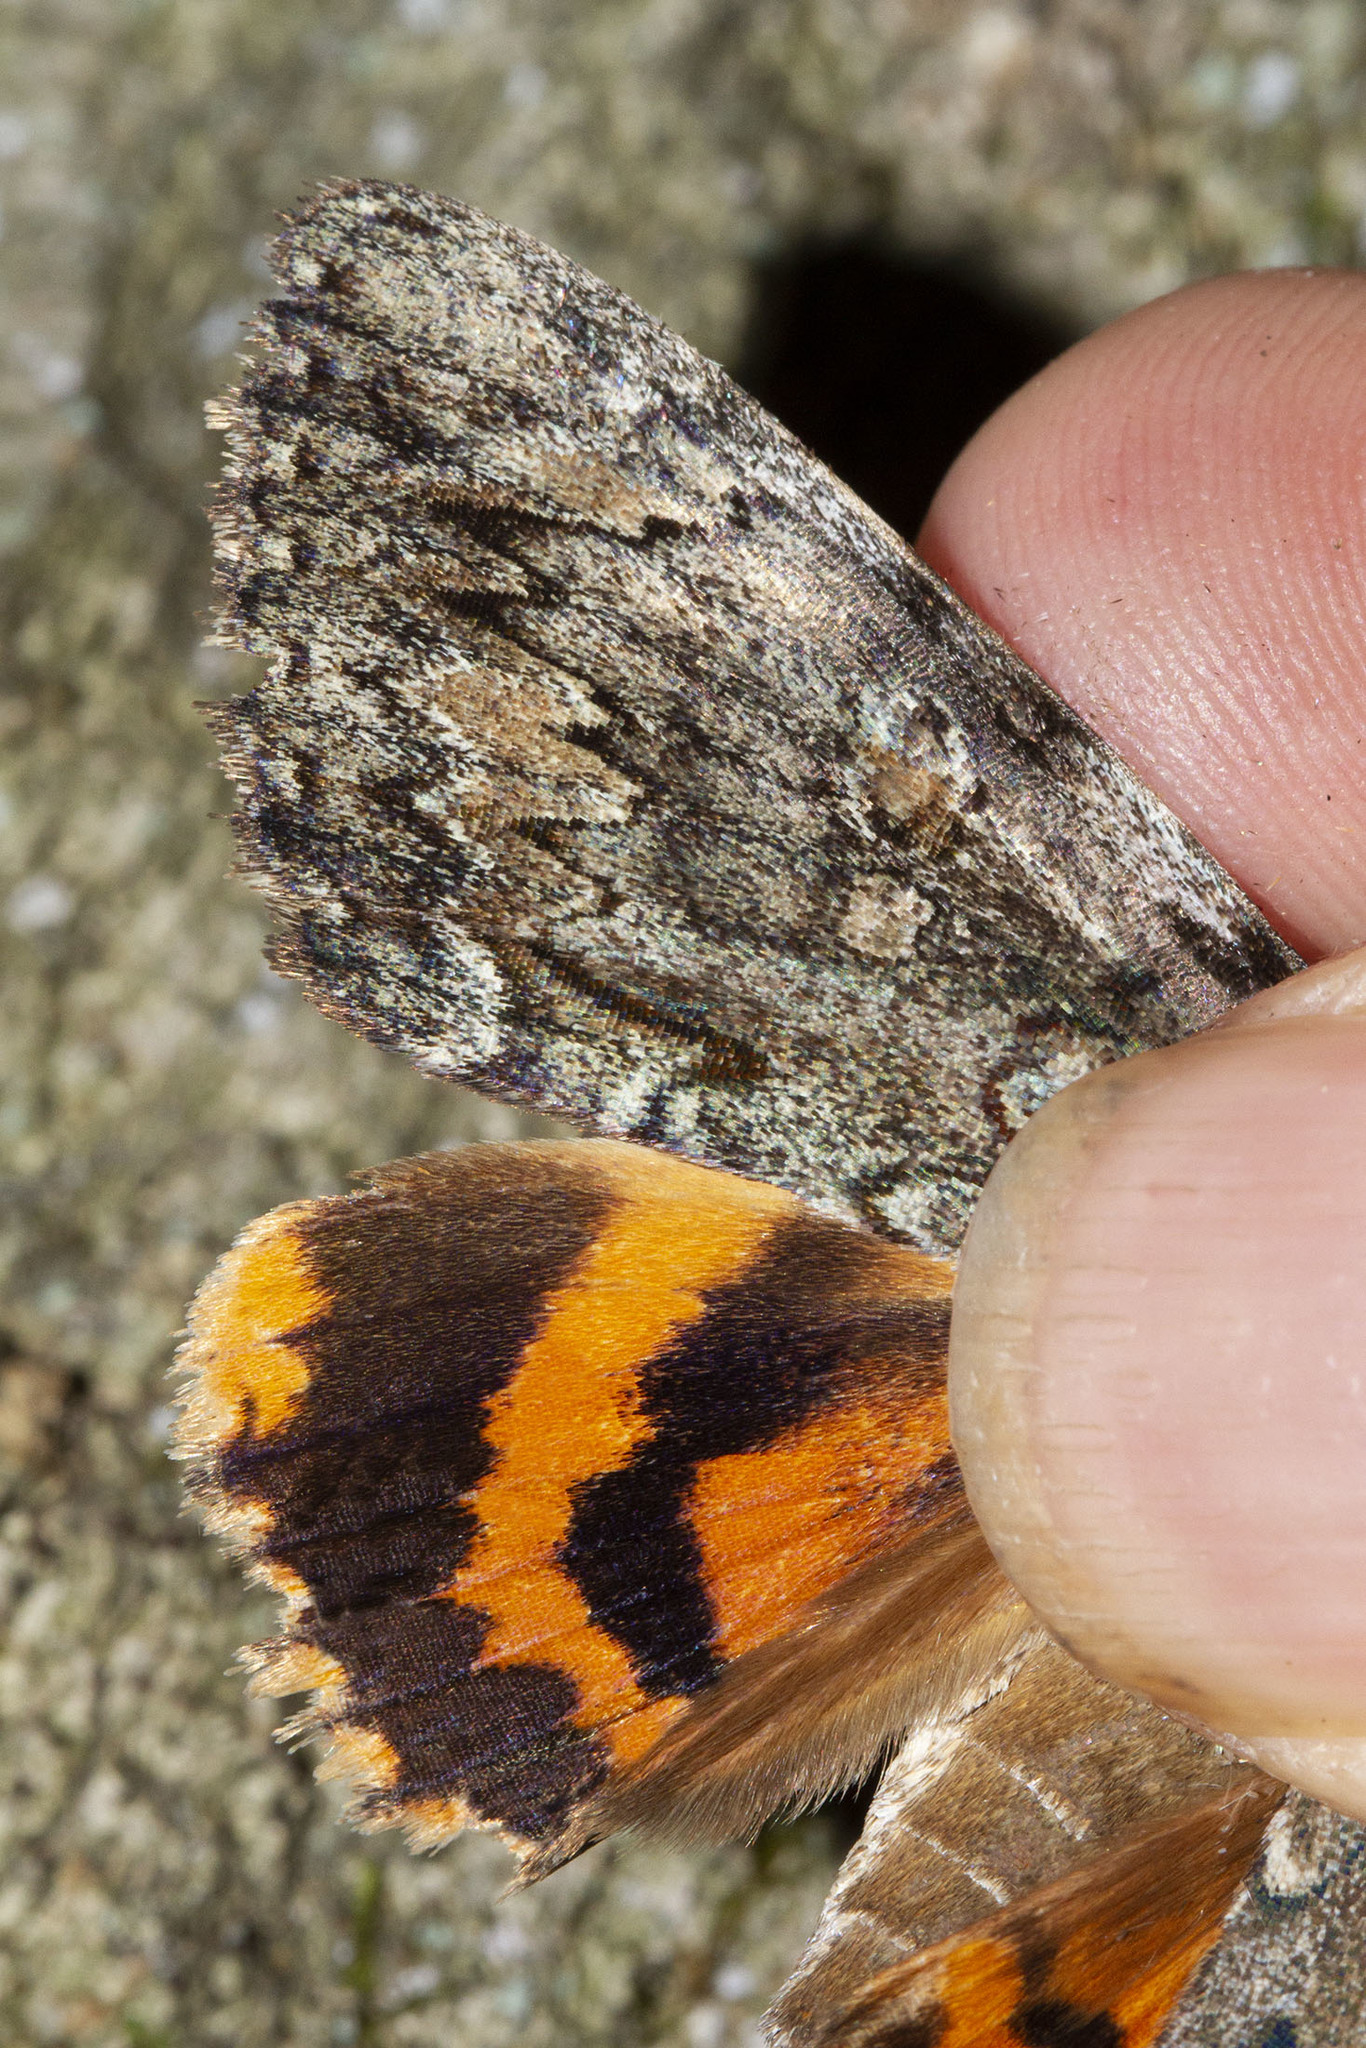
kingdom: Animalia
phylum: Arthropoda
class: Insecta
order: Lepidoptera
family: Erebidae
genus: Catocala
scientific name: Catocala palaeogama
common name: Oldwife underwing
